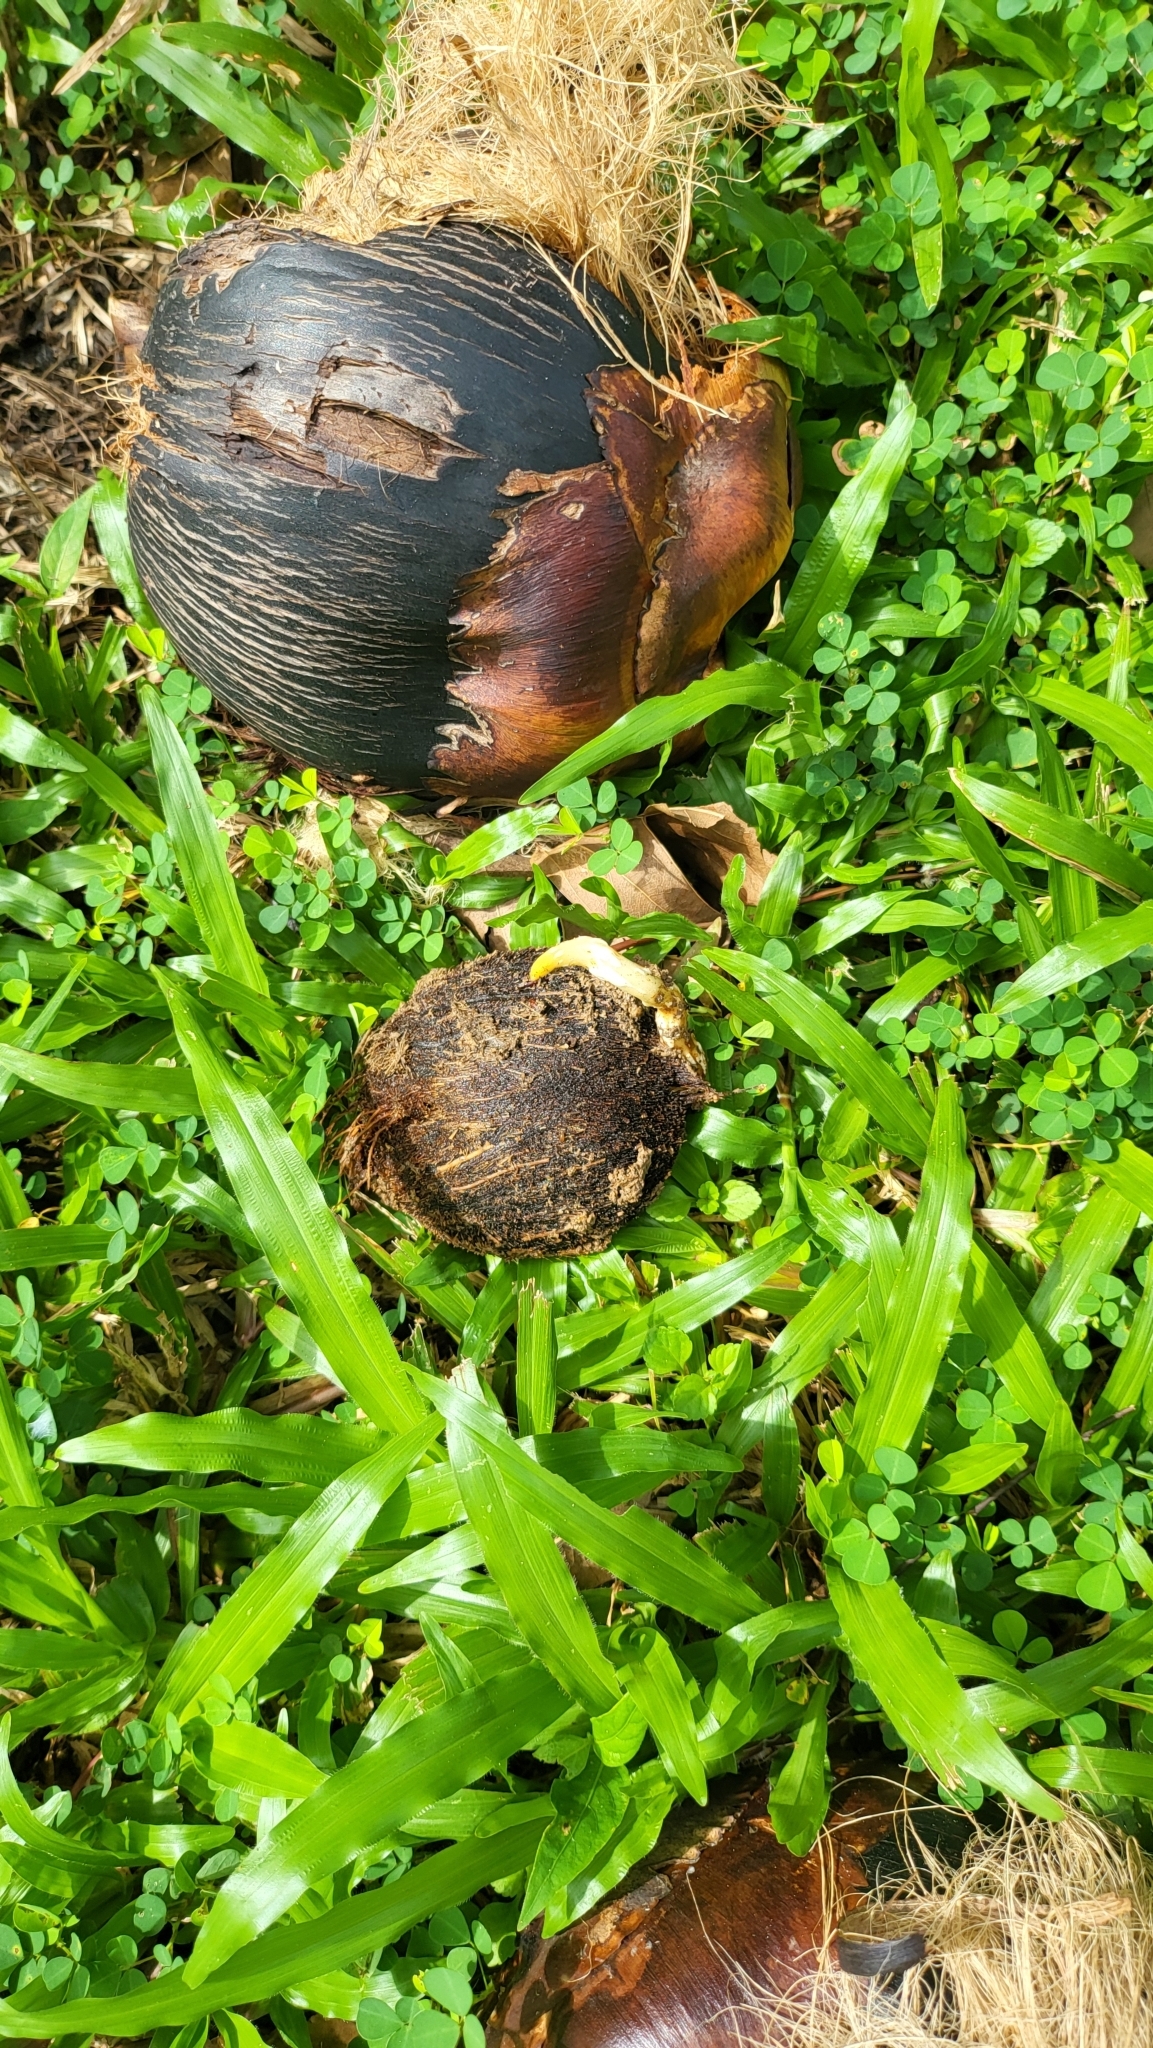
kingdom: Plantae
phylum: Tracheophyta
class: Liliopsida
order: Arecales
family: Arecaceae
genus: Borassus
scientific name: Borassus flabellifer
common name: Palmyra palm
